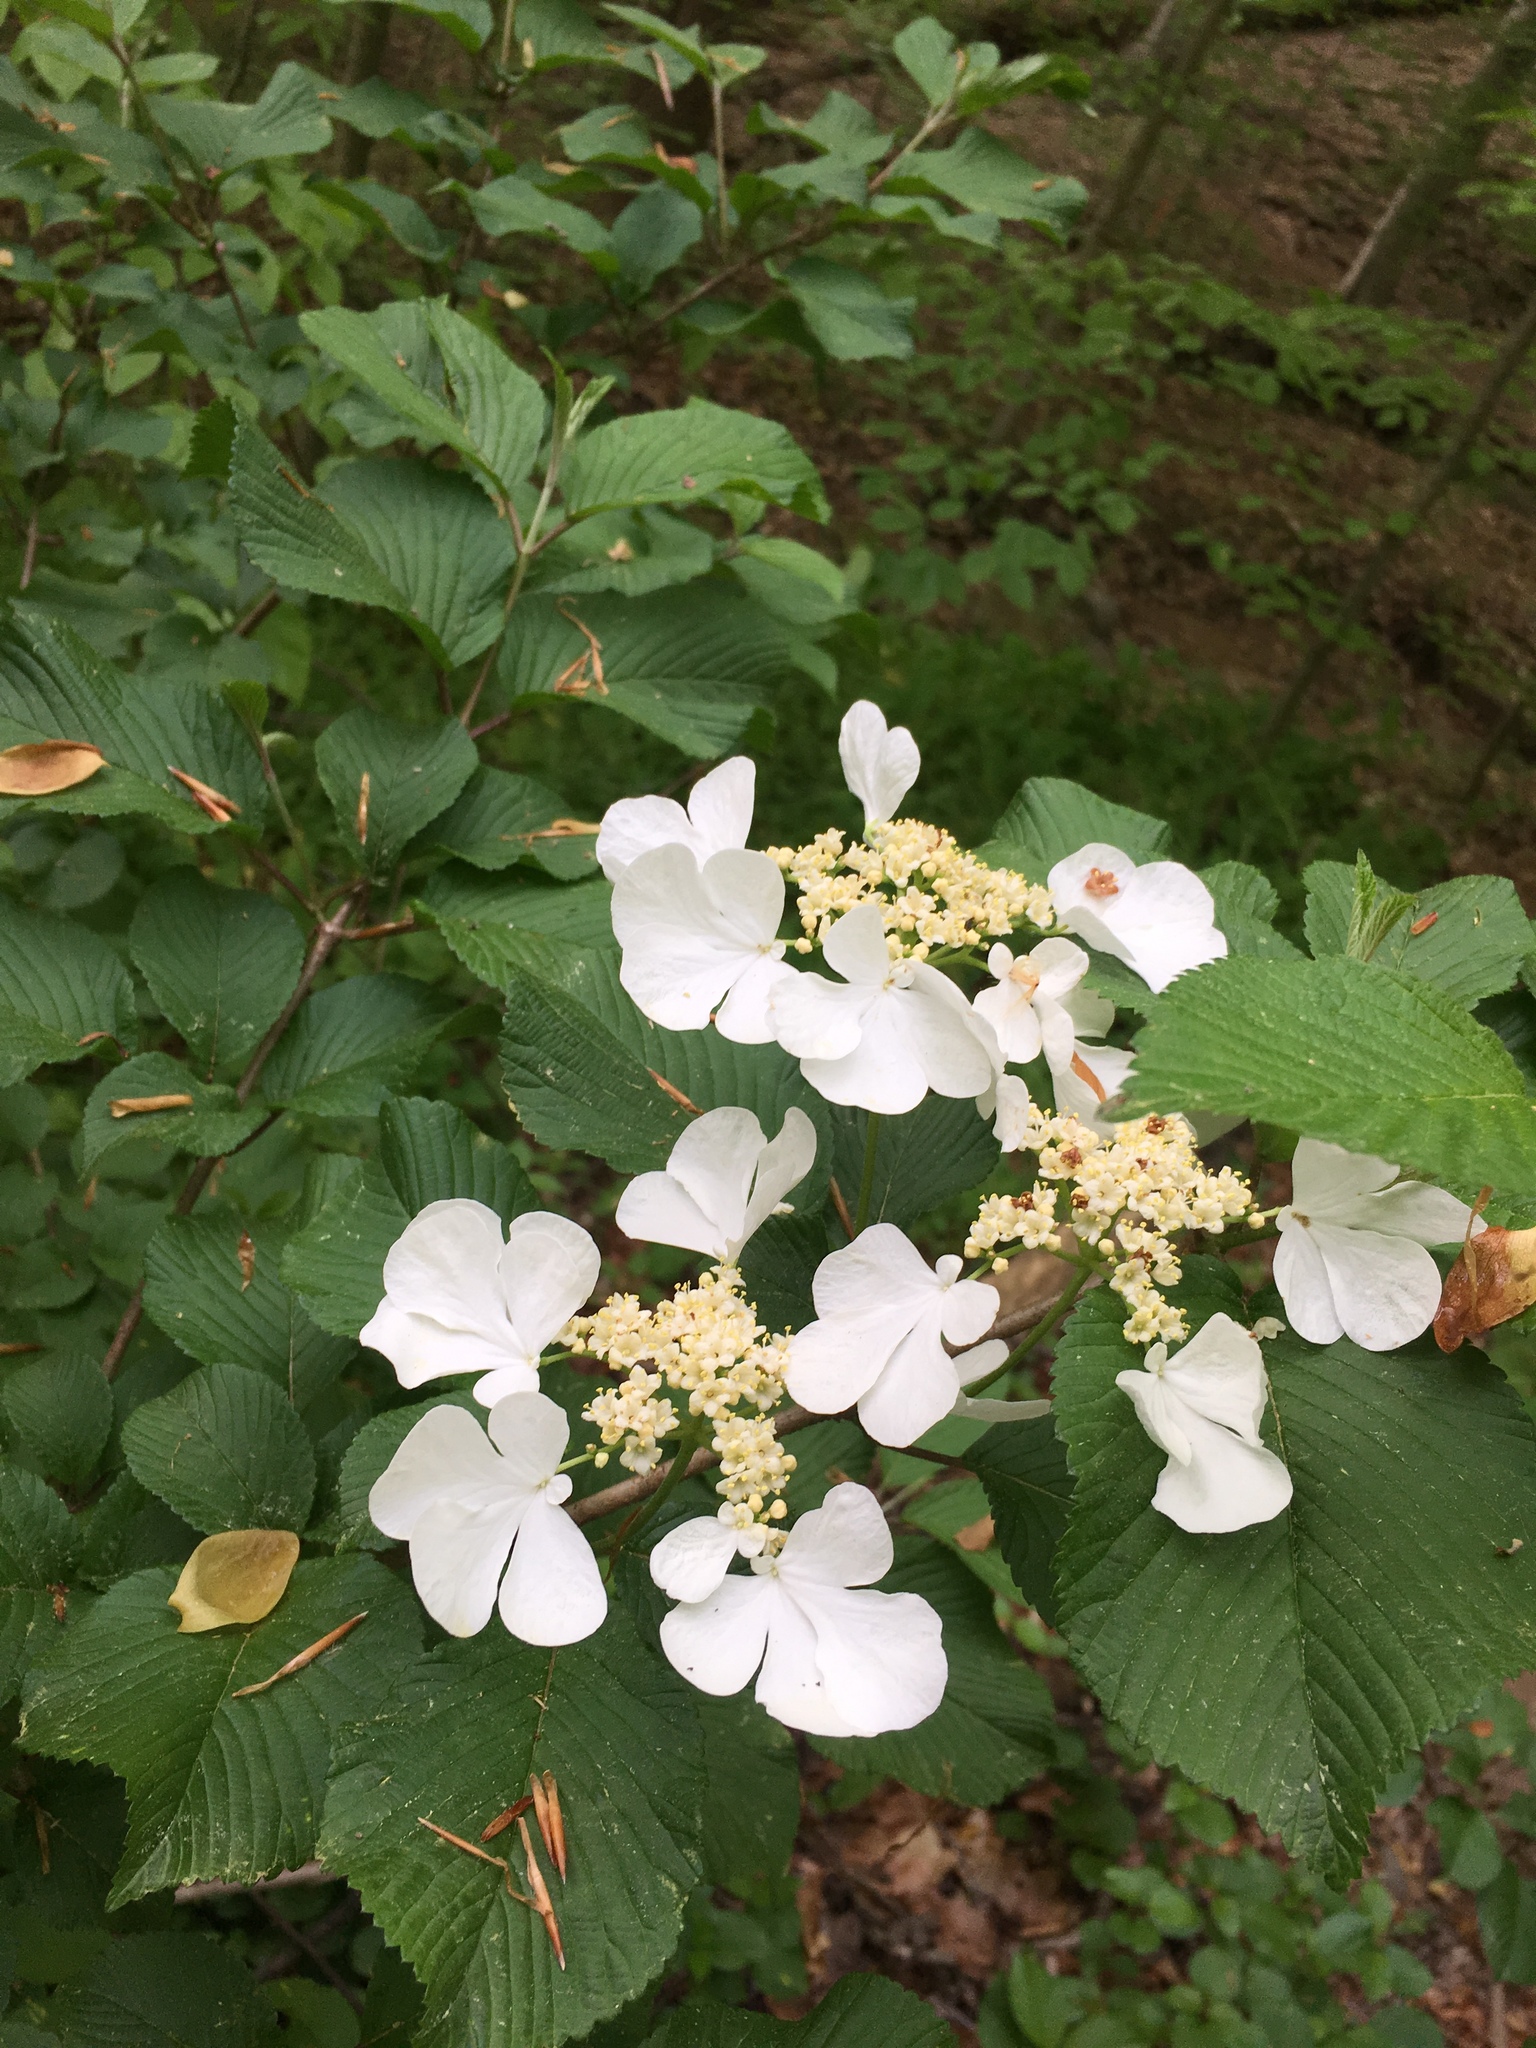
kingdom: Plantae
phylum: Tracheophyta
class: Magnoliopsida
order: Dipsacales
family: Viburnaceae
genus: Viburnum
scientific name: Viburnum plicatum
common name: Japanese snowball
